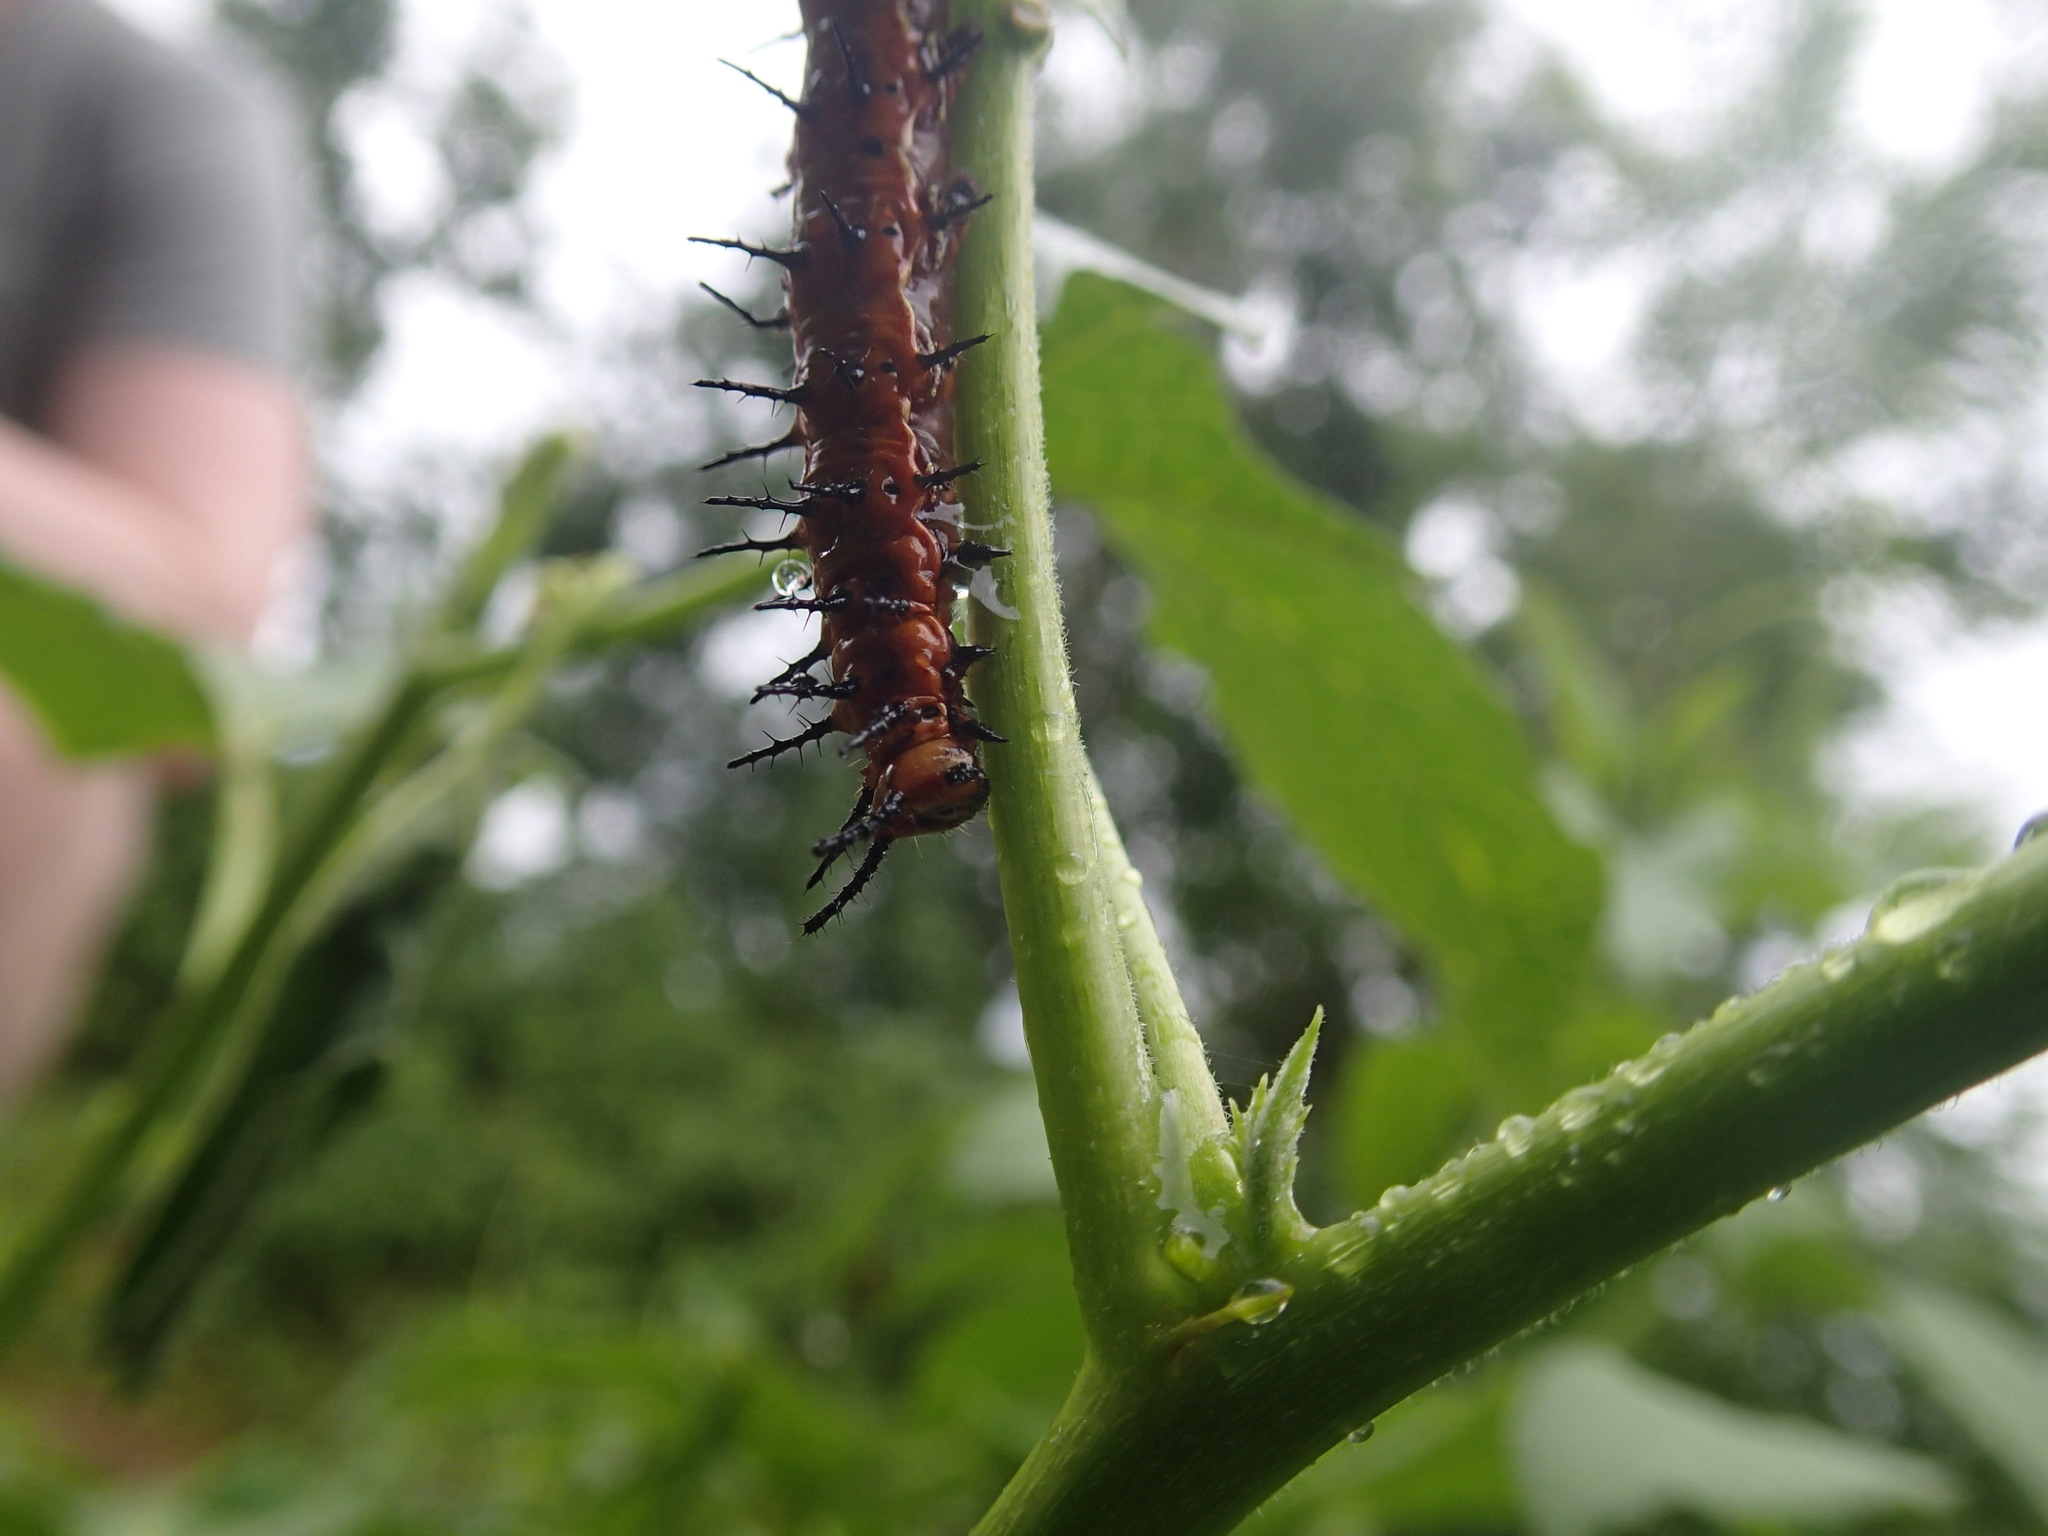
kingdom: Animalia
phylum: Arthropoda
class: Insecta
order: Lepidoptera
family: Nymphalidae
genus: Dione
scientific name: Dione vanillae
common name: Gulf fritillary
